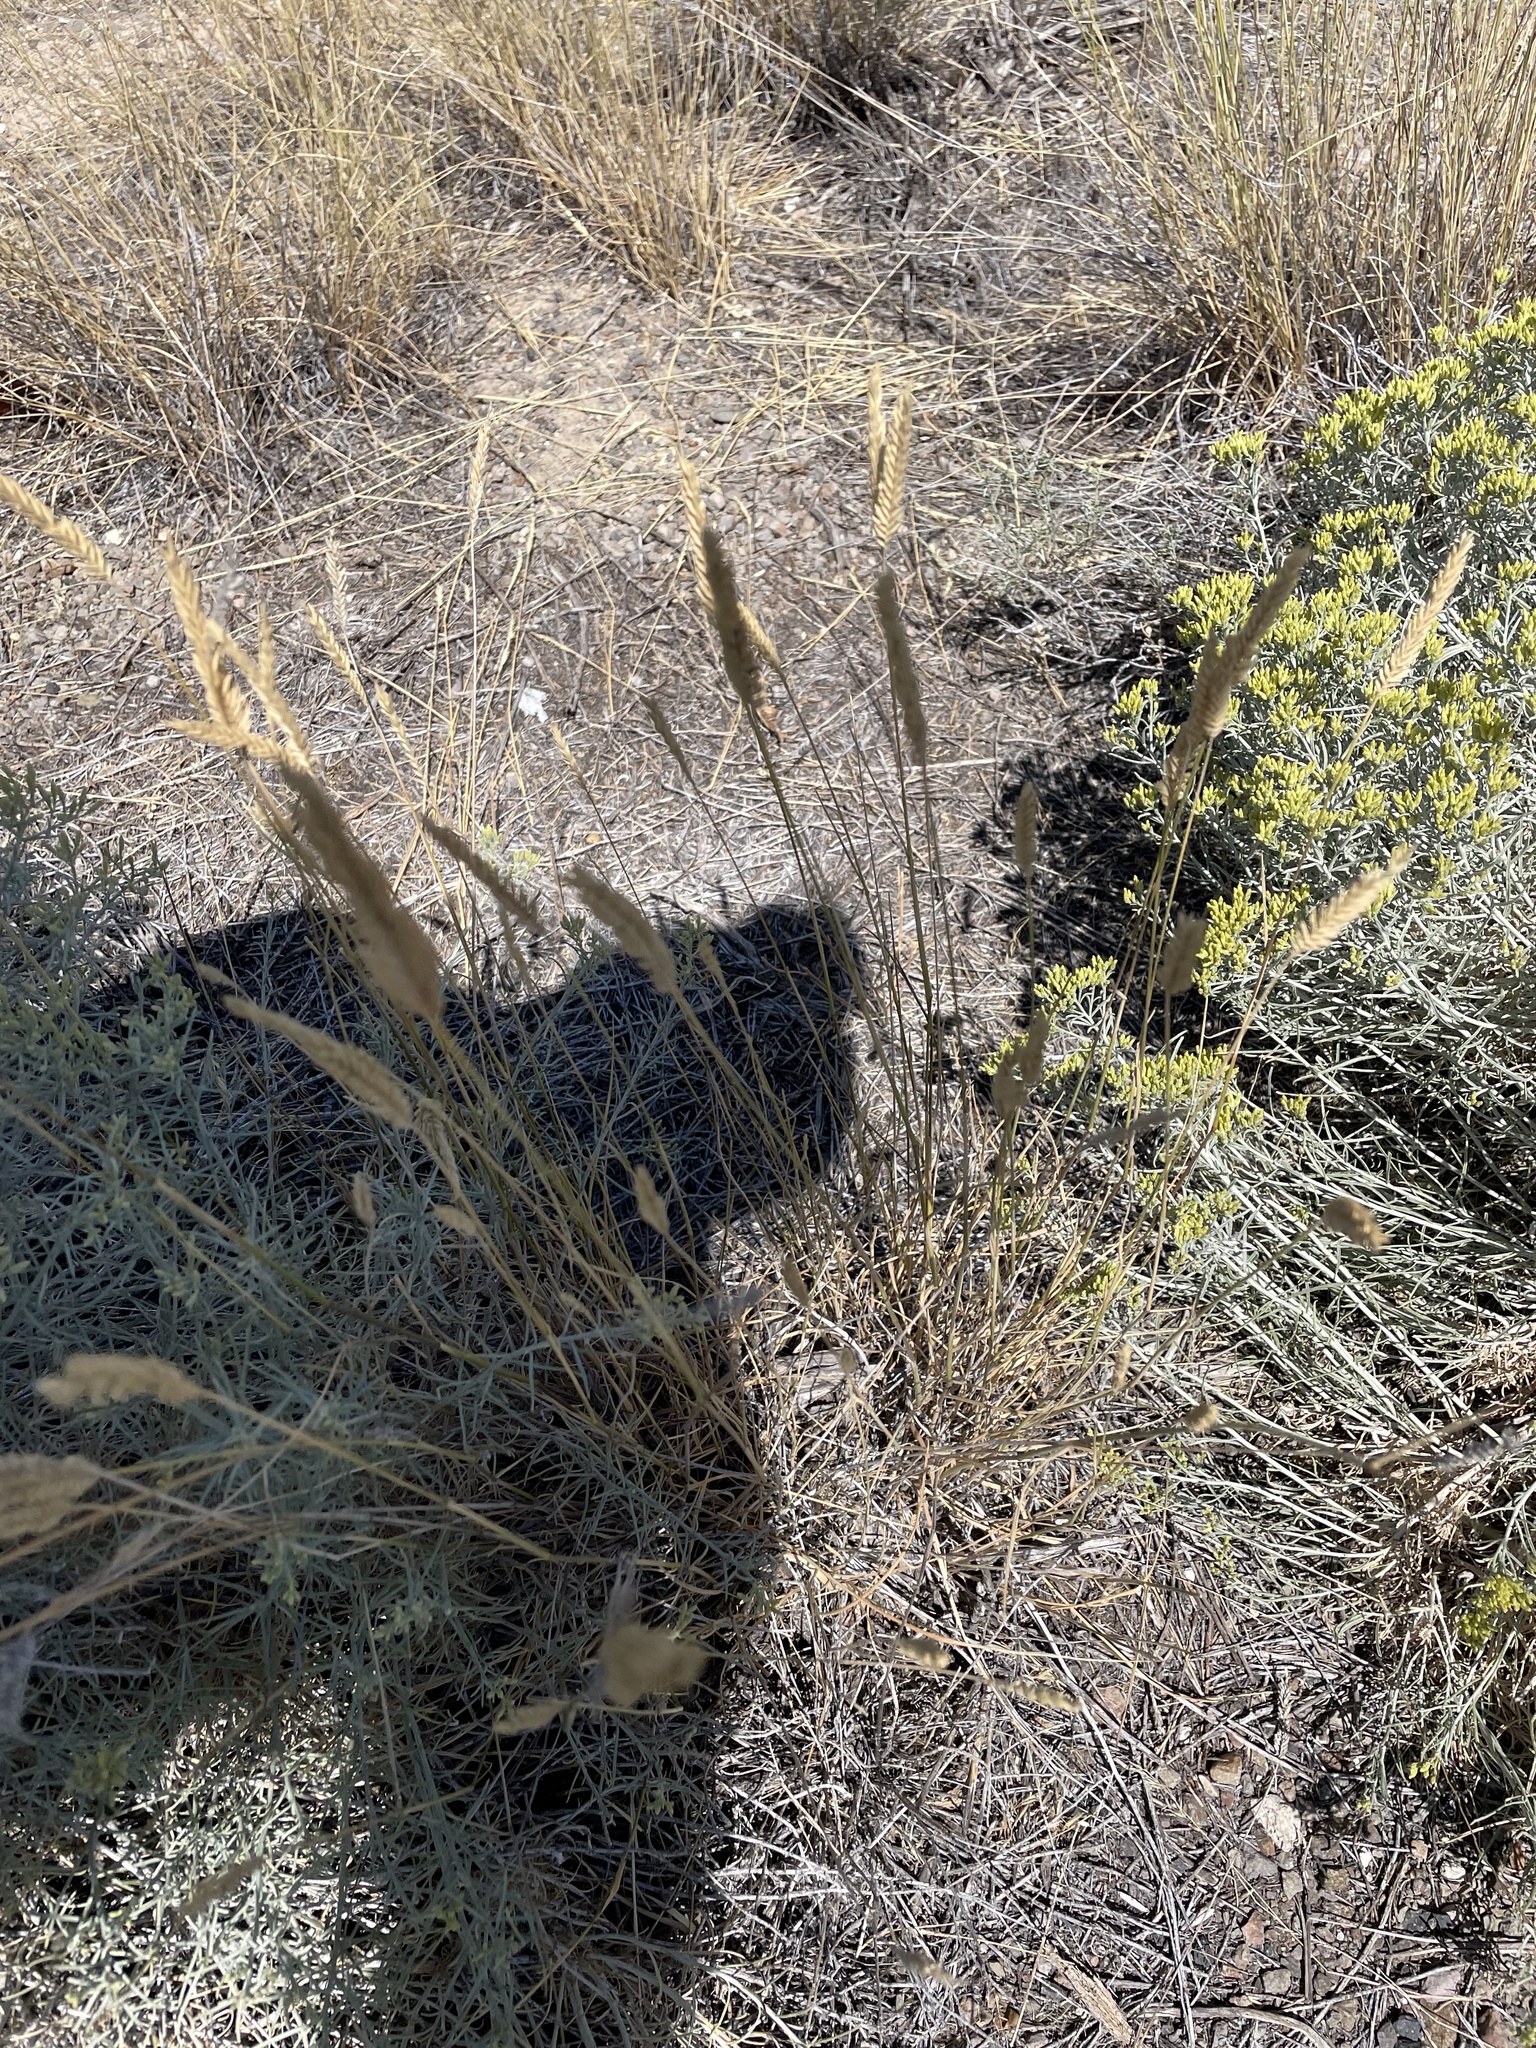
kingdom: Plantae
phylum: Tracheophyta
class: Liliopsida
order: Poales
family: Poaceae
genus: Agropyron
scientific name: Agropyron cristatum
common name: Crested wheatgrass
